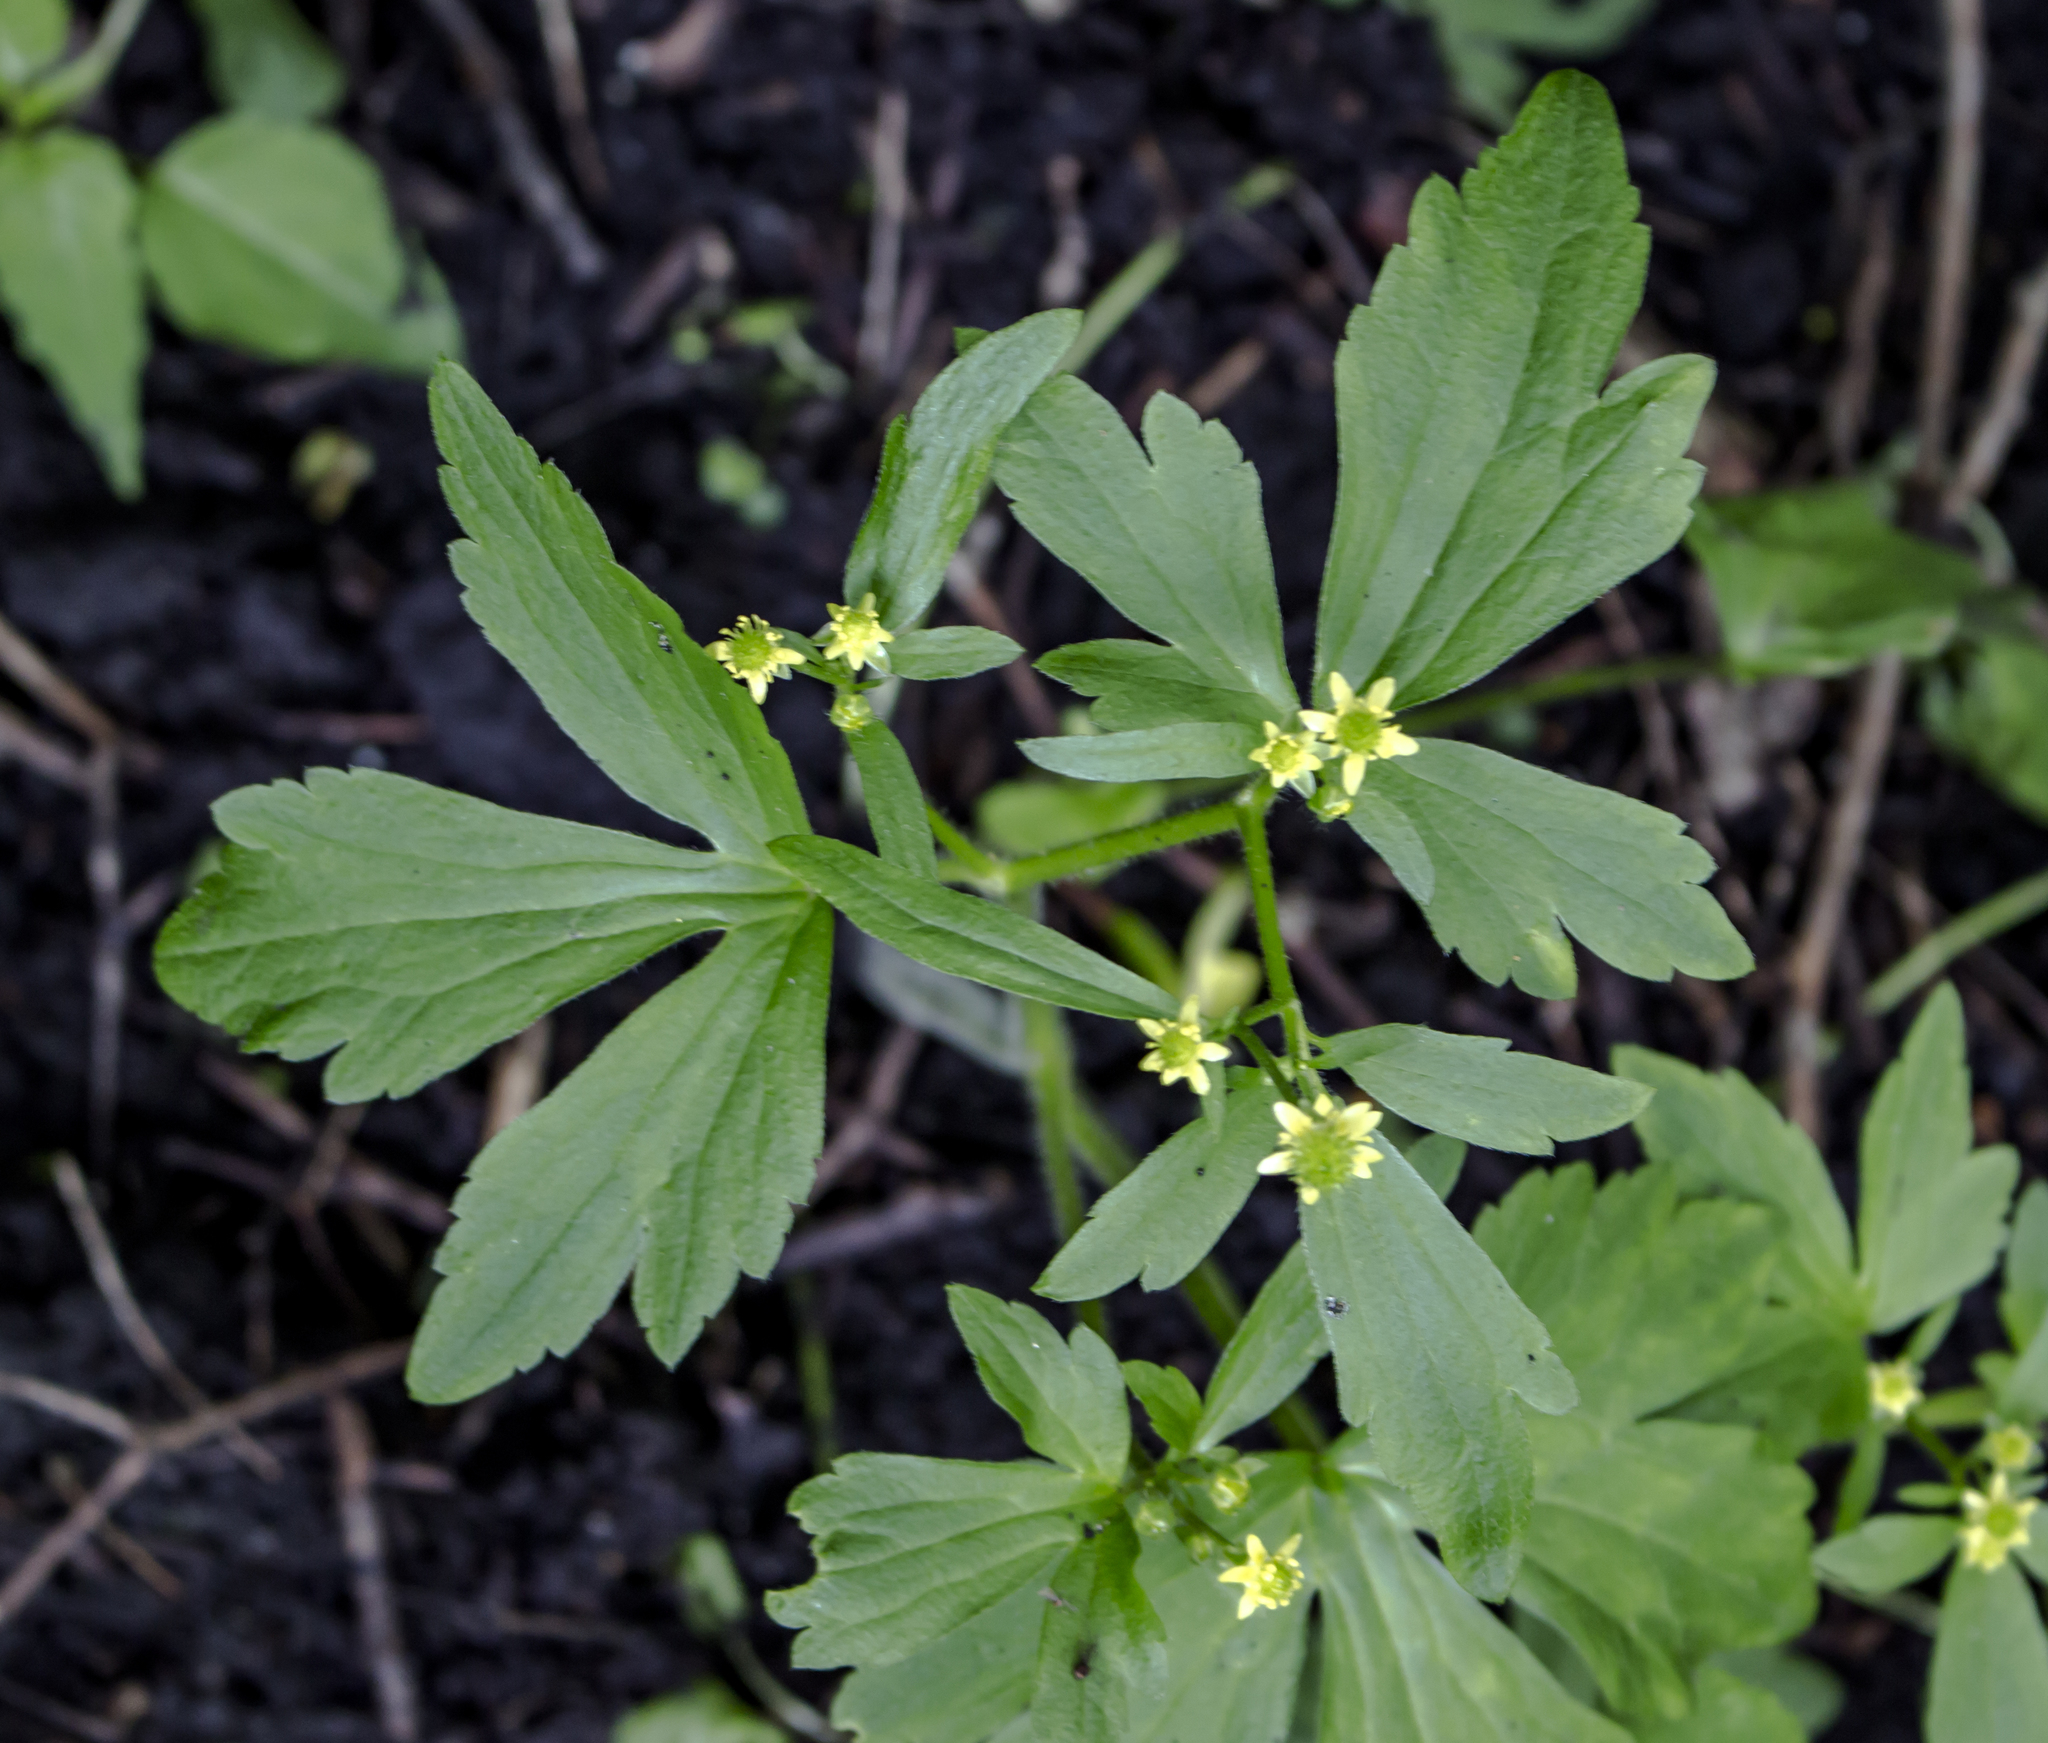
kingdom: Plantae
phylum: Tracheophyta
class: Magnoliopsida
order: Ranunculales
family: Ranunculaceae
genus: Ranunculus
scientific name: Ranunculus recurvatus
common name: Blisterwort
